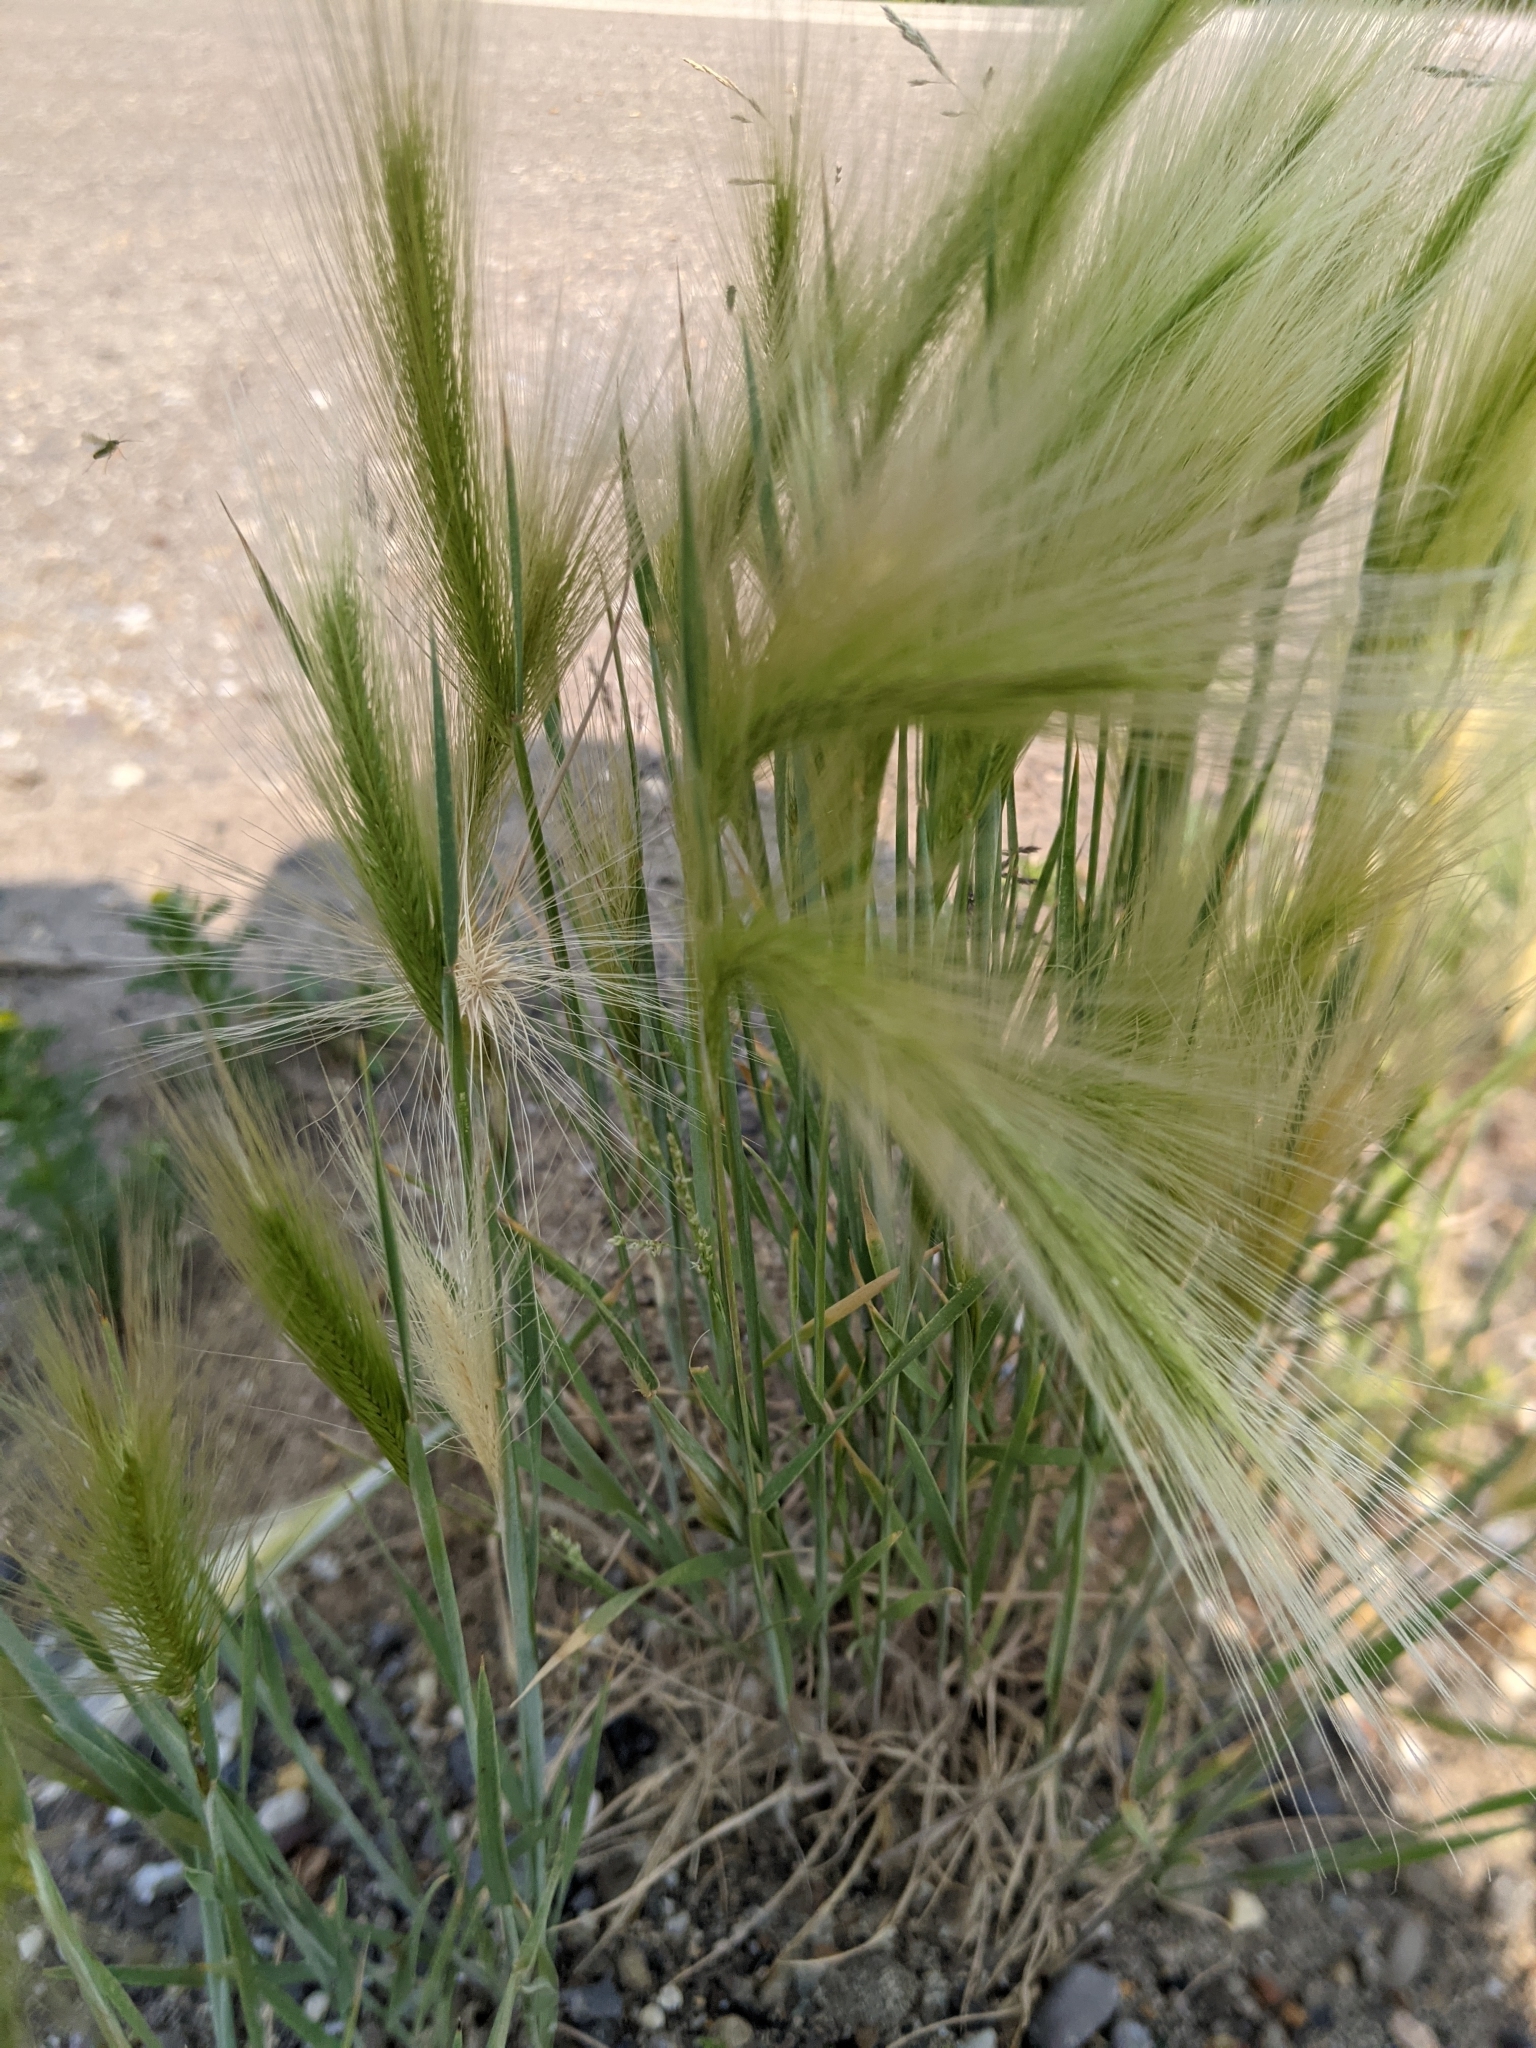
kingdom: Plantae
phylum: Tracheophyta
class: Liliopsida
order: Poales
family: Poaceae
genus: Hordeum
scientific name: Hordeum jubatum
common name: Foxtail barley
